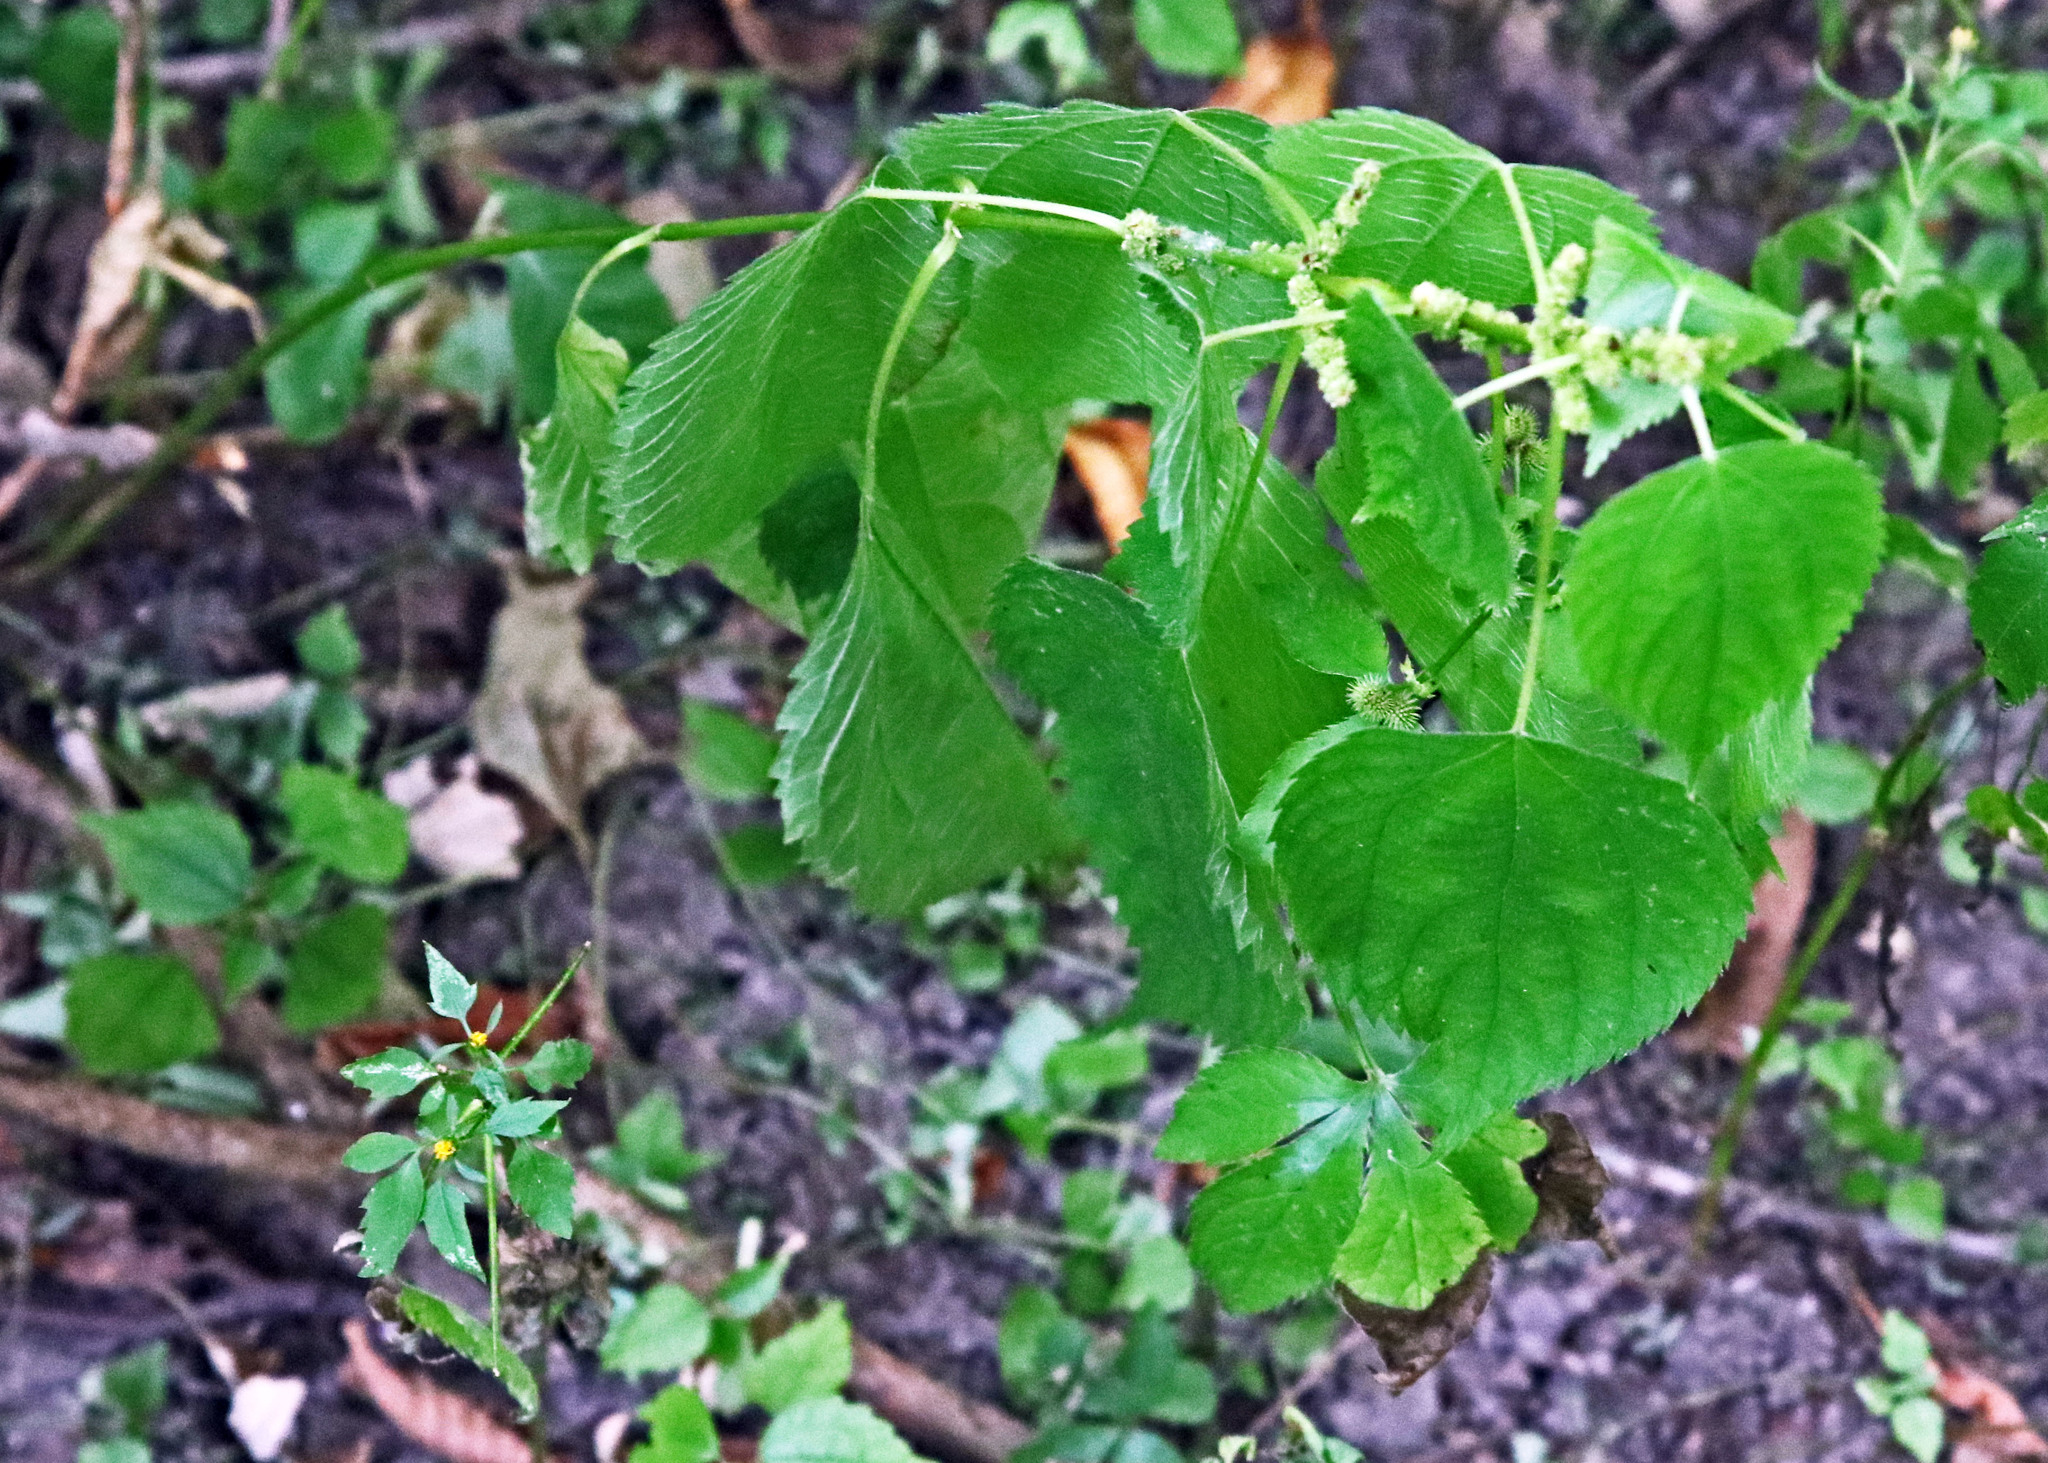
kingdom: Plantae
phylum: Tracheophyta
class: Magnoliopsida
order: Rosales
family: Urticaceae
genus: Boehmeria
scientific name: Boehmeria cylindrica
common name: Bog-hemp
